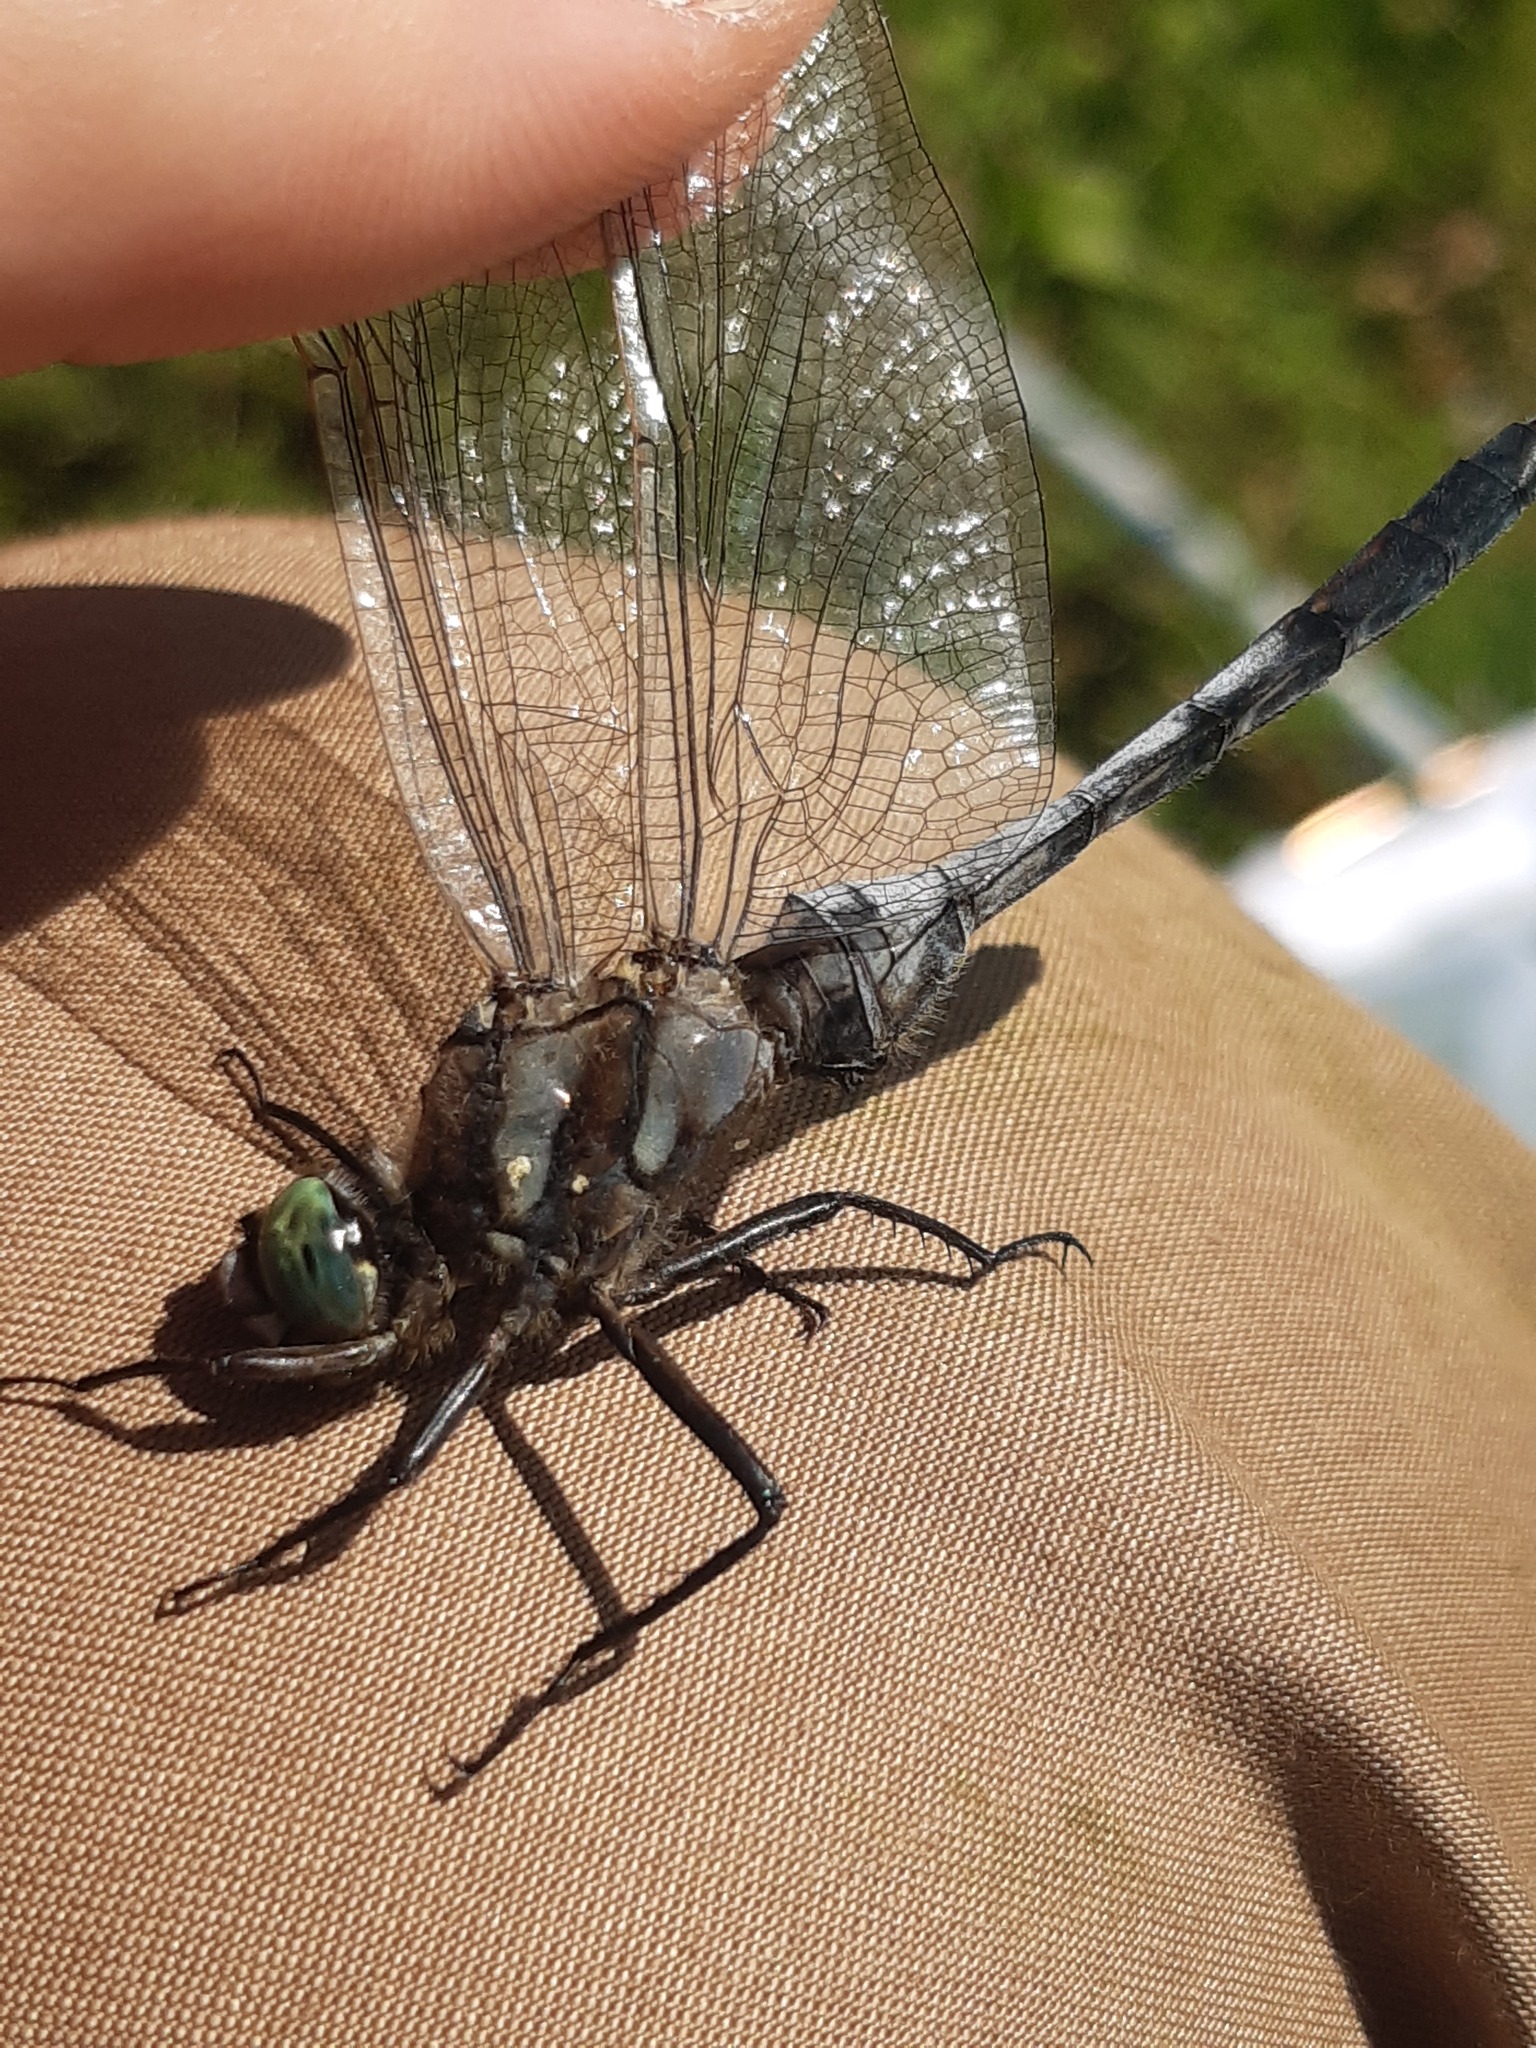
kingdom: Animalia
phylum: Arthropoda
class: Insecta
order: Odonata
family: Libellulidae
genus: Orthetrum
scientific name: Orthetrum albistylum
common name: White-tailed skimmer
